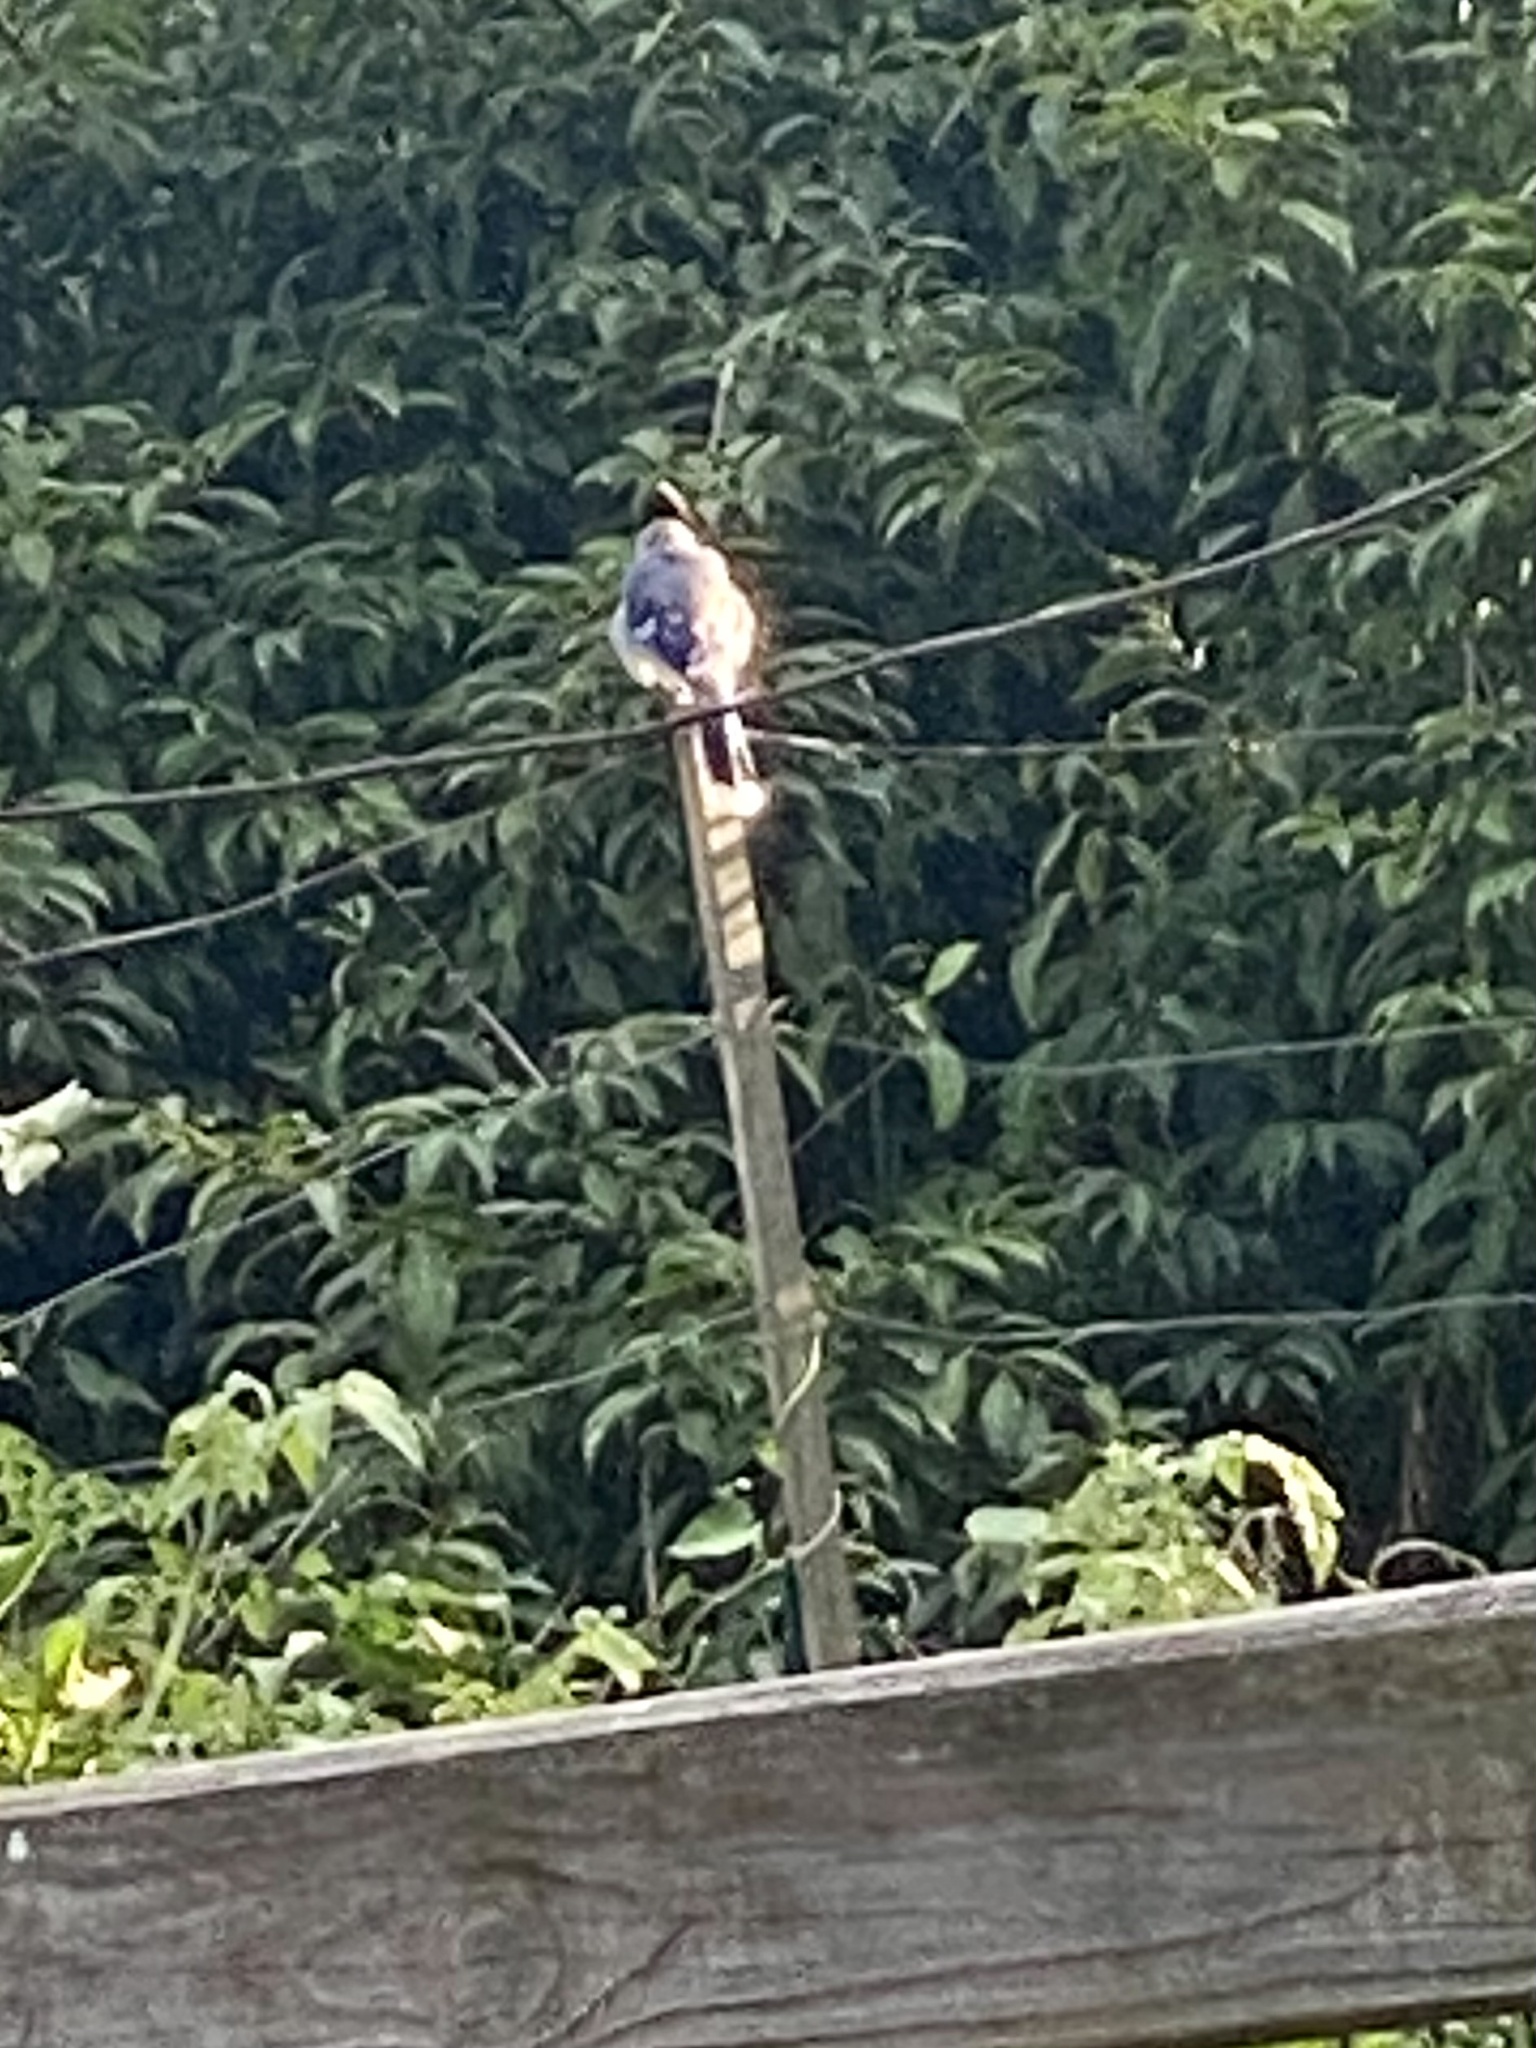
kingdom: Animalia
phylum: Chordata
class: Aves
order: Passeriformes
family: Corvidae
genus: Cyanocitta
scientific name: Cyanocitta cristata
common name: Blue jay
